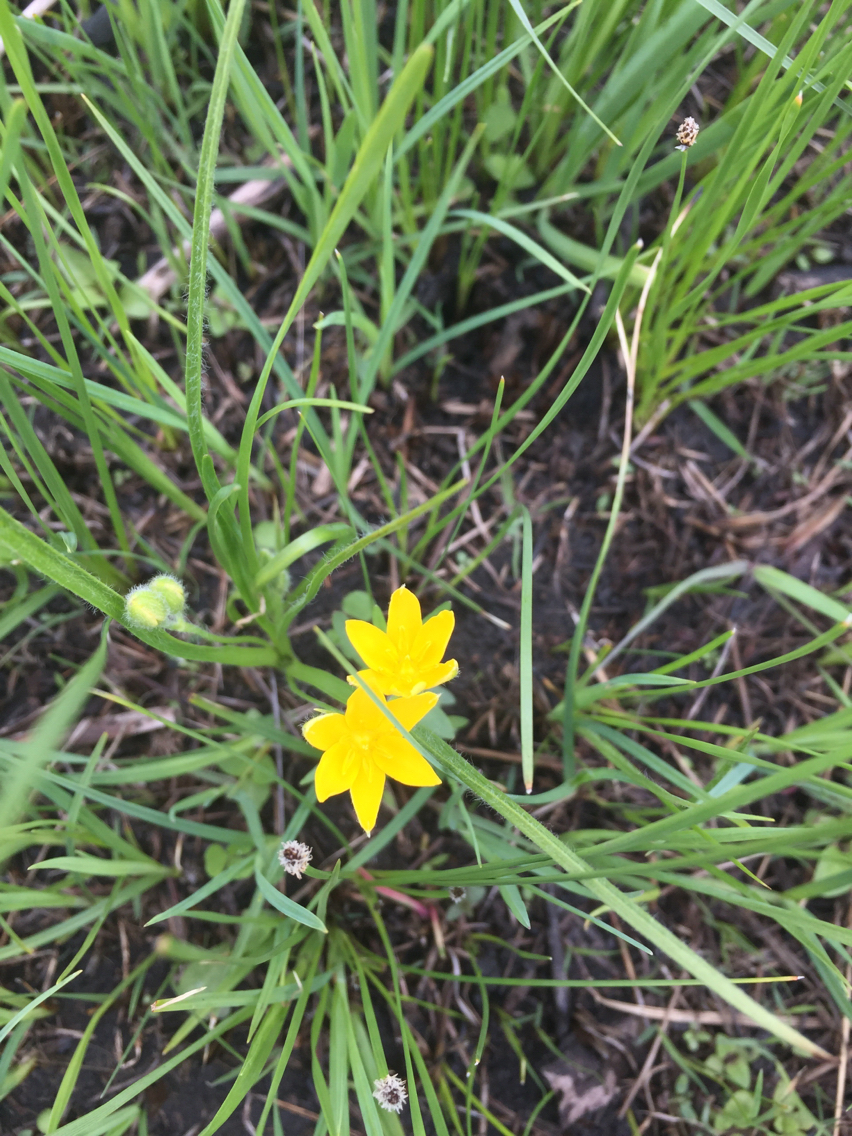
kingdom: Plantae
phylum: Tracheophyta
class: Liliopsida
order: Asparagales
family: Hypoxidaceae
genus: Hypoxis
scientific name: Hypoxis hirsuta
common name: Common goldstar
